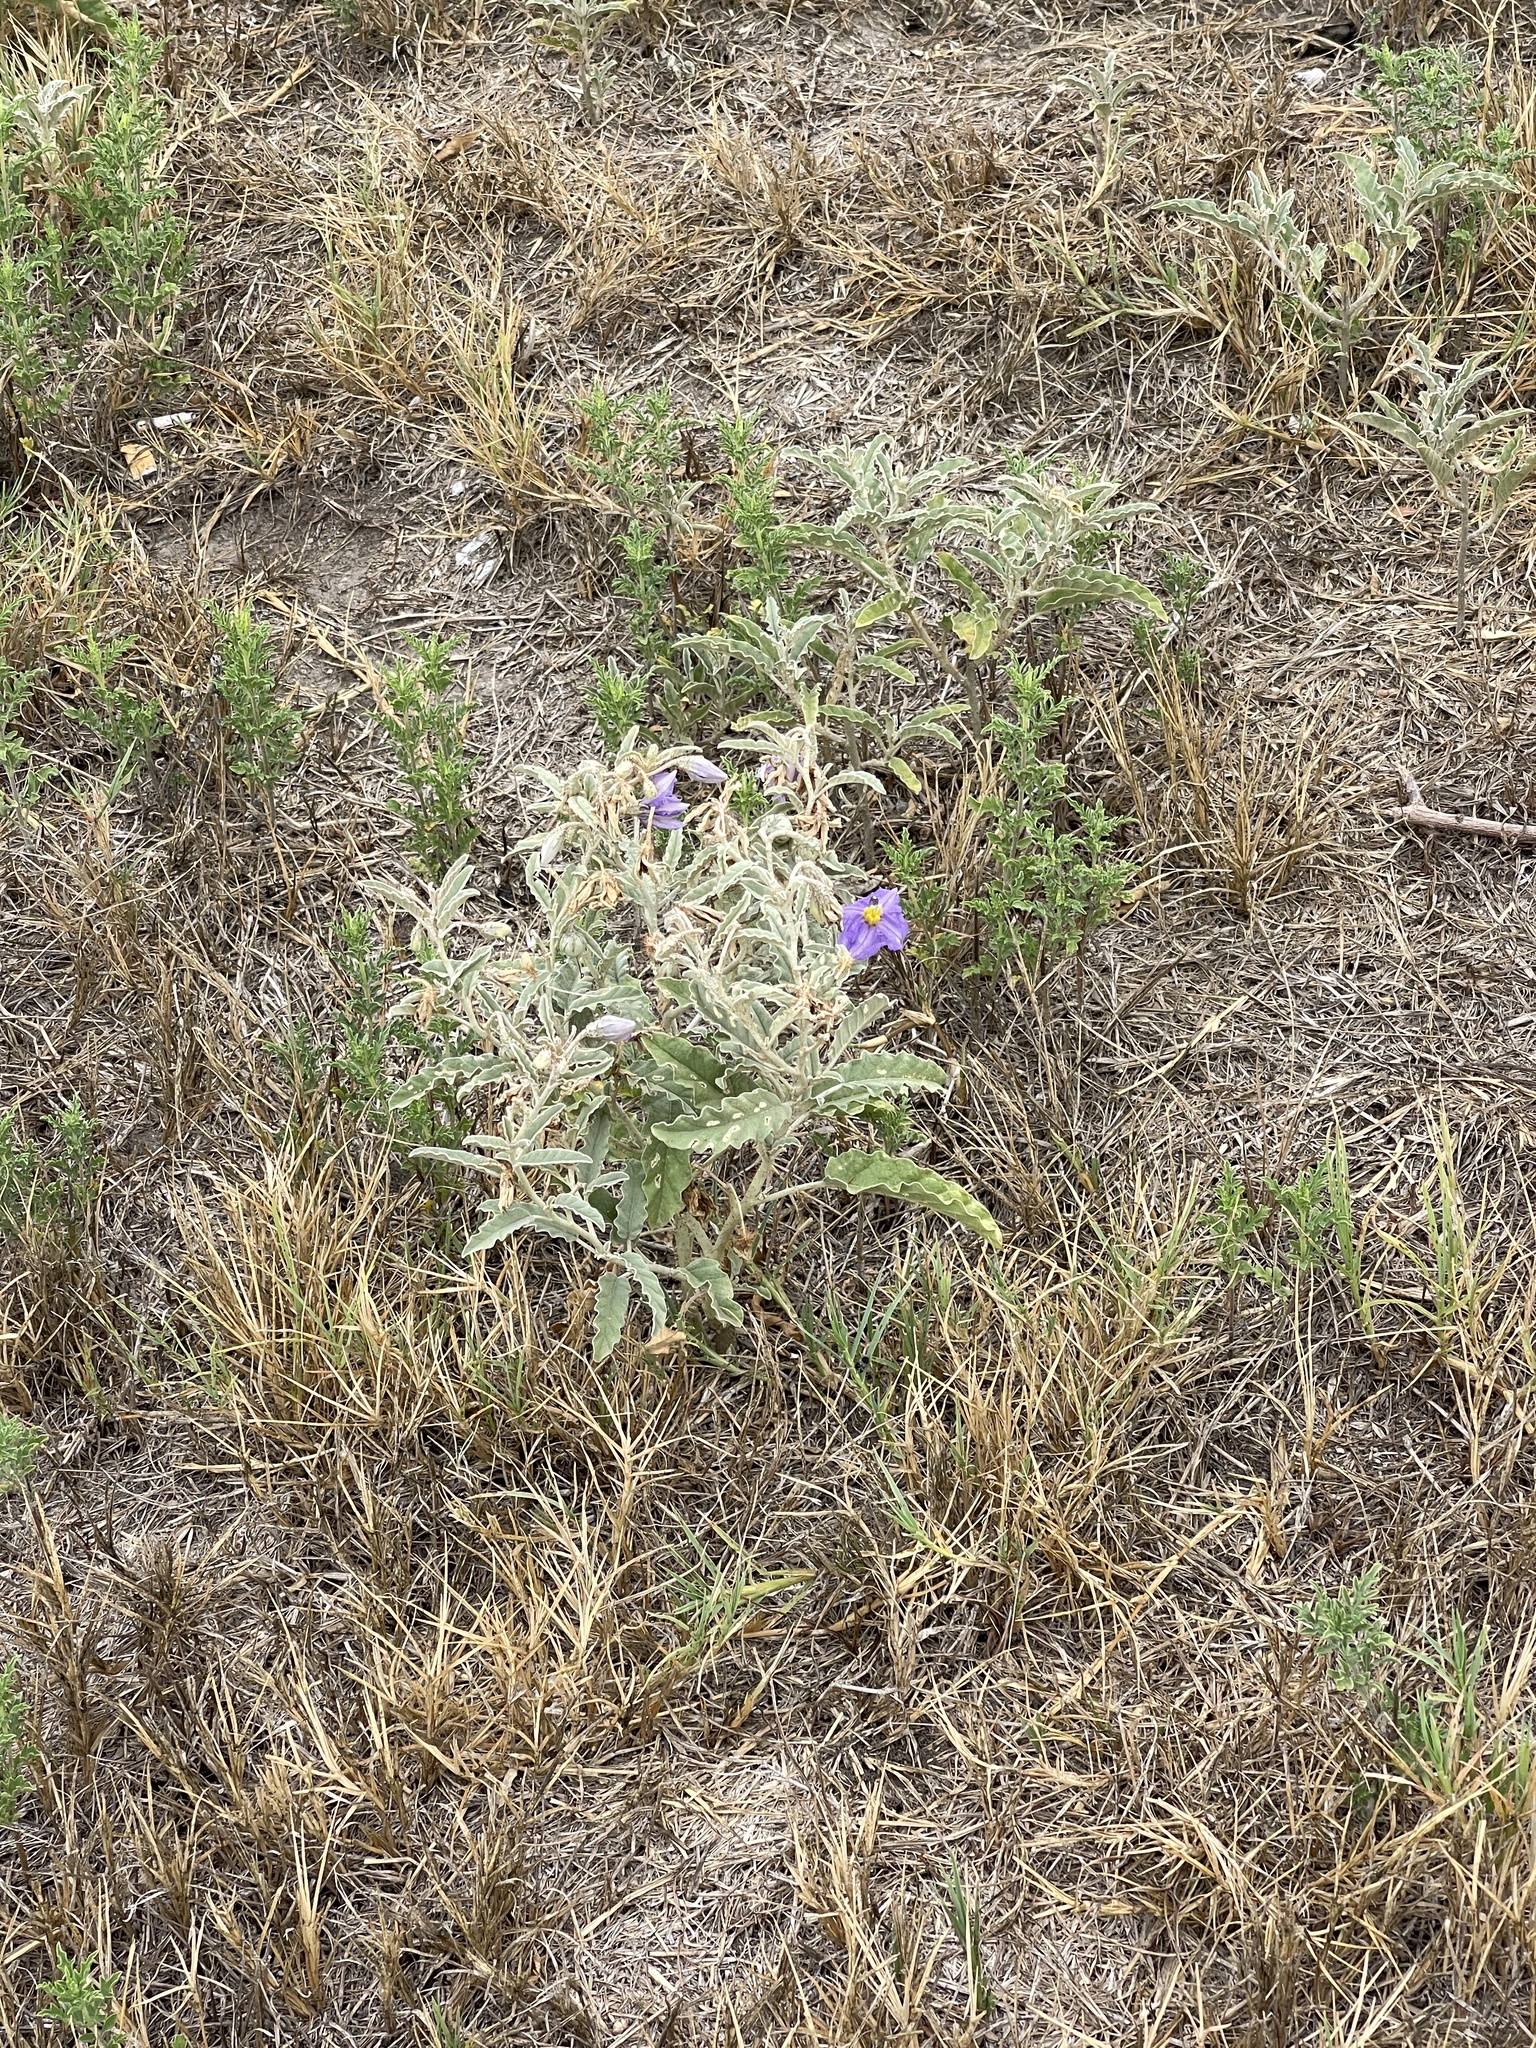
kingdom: Plantae
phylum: Tracheophyta
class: Magnoliopsida
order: Solanales
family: Solanaceae
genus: Solanum
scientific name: Solanum elaeagnifolium
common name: Silverleaf nightshade
